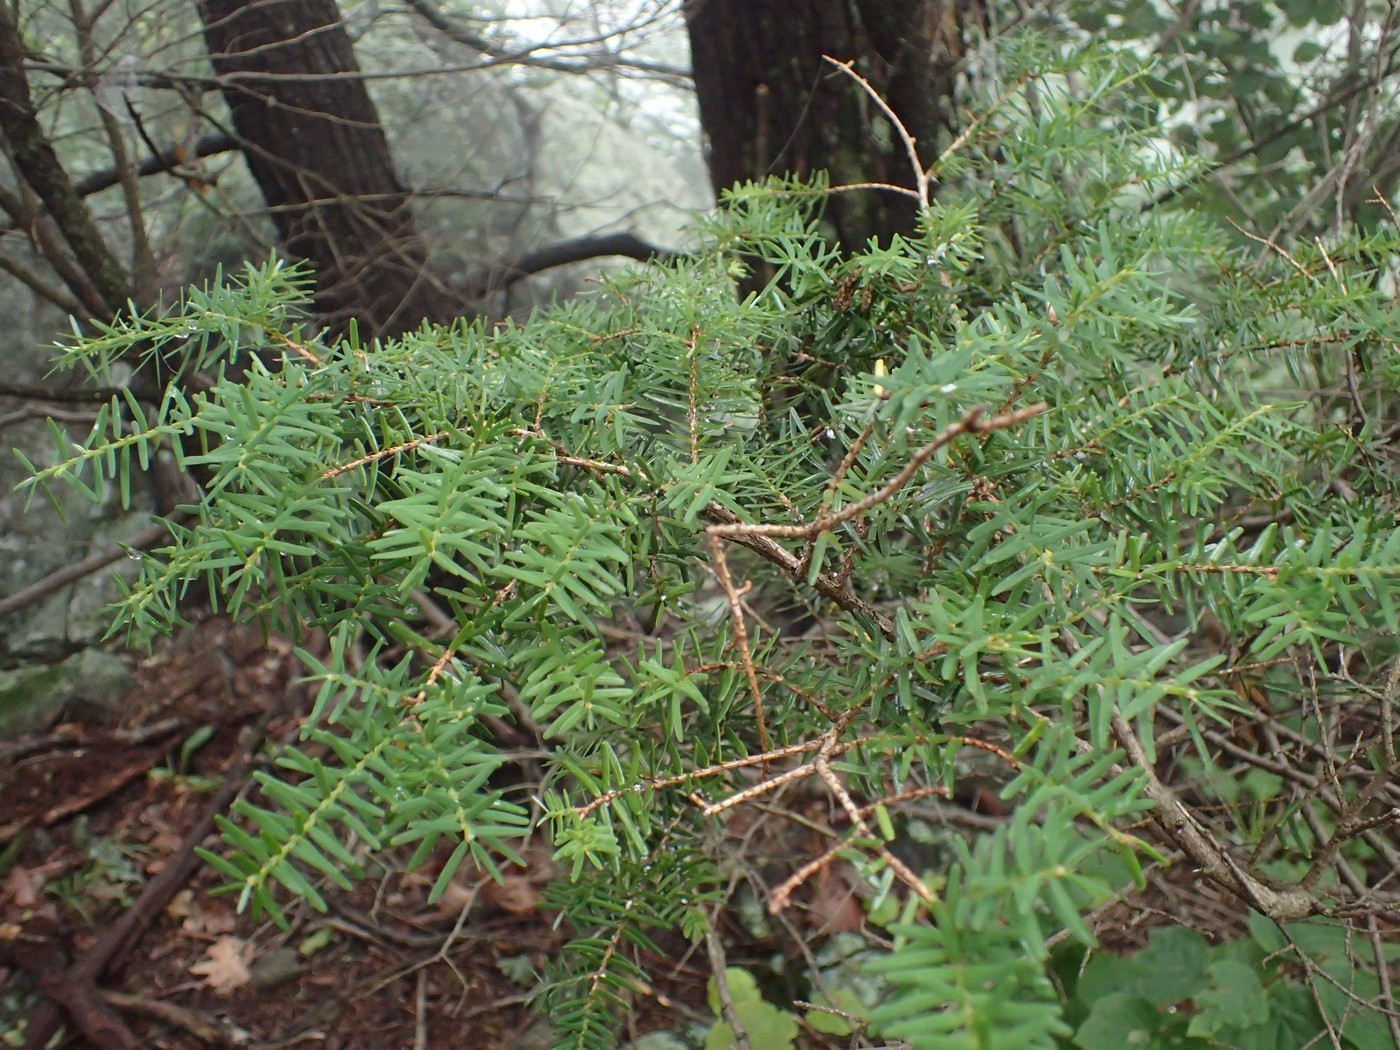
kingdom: Plantae
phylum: Tracheophyta
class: Pinopsida
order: Pinales
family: Pinaceae
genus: Tsuga
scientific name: Tsuga caroliniana
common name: Carolina hemlock
